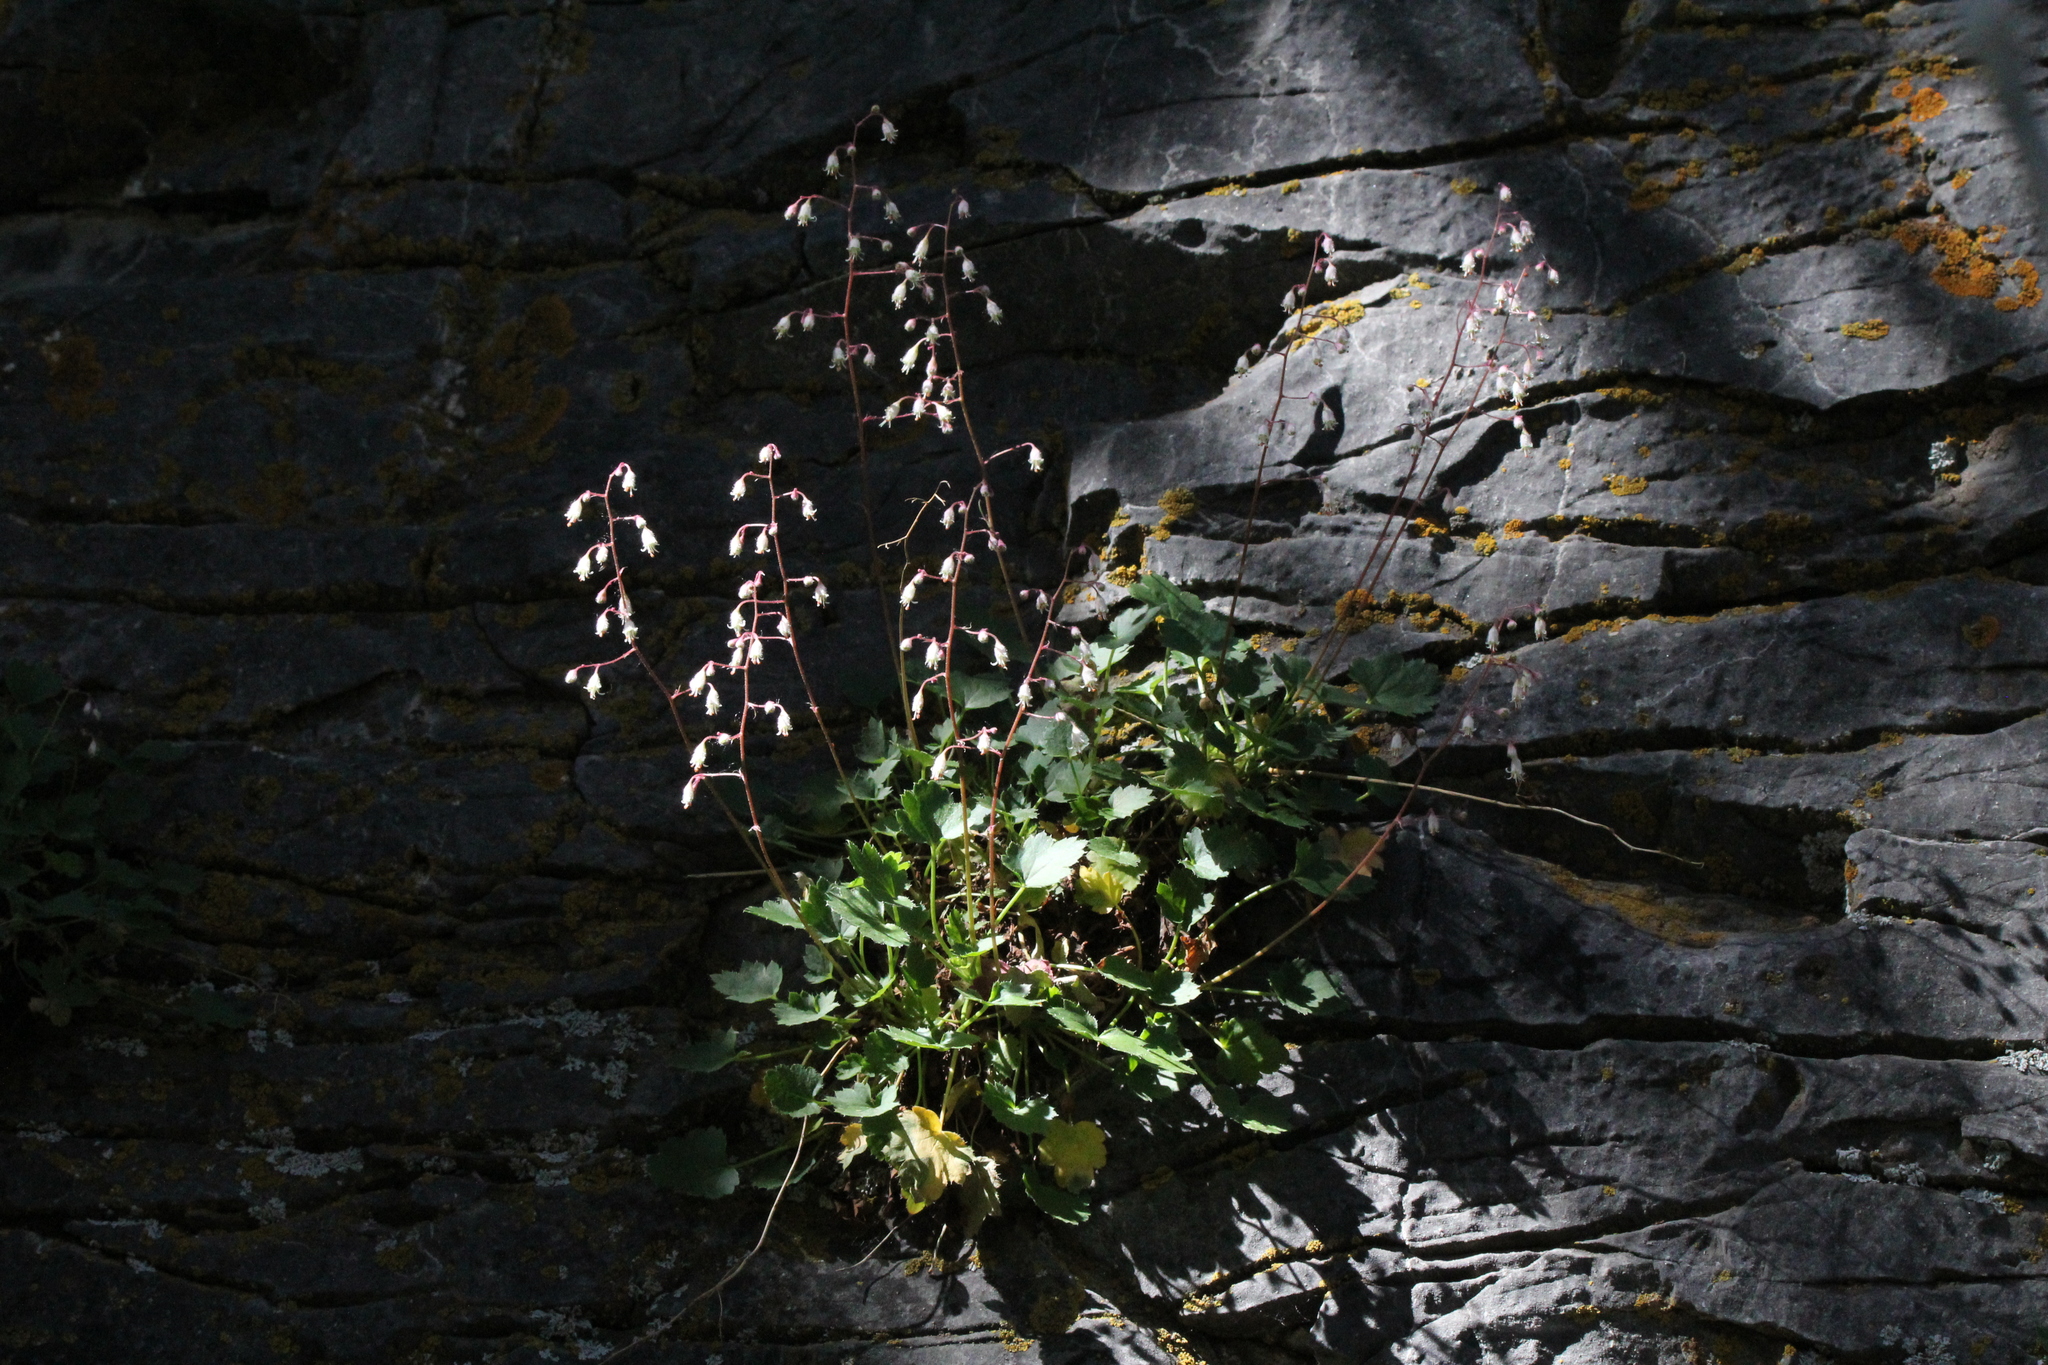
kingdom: Plantae
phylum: Tracheophyta
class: Magnoliopsida
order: Saxifragales
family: Saxifragaceae
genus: Heuchera
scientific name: Heuchera rubescens
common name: Jack-o'the-rocks
